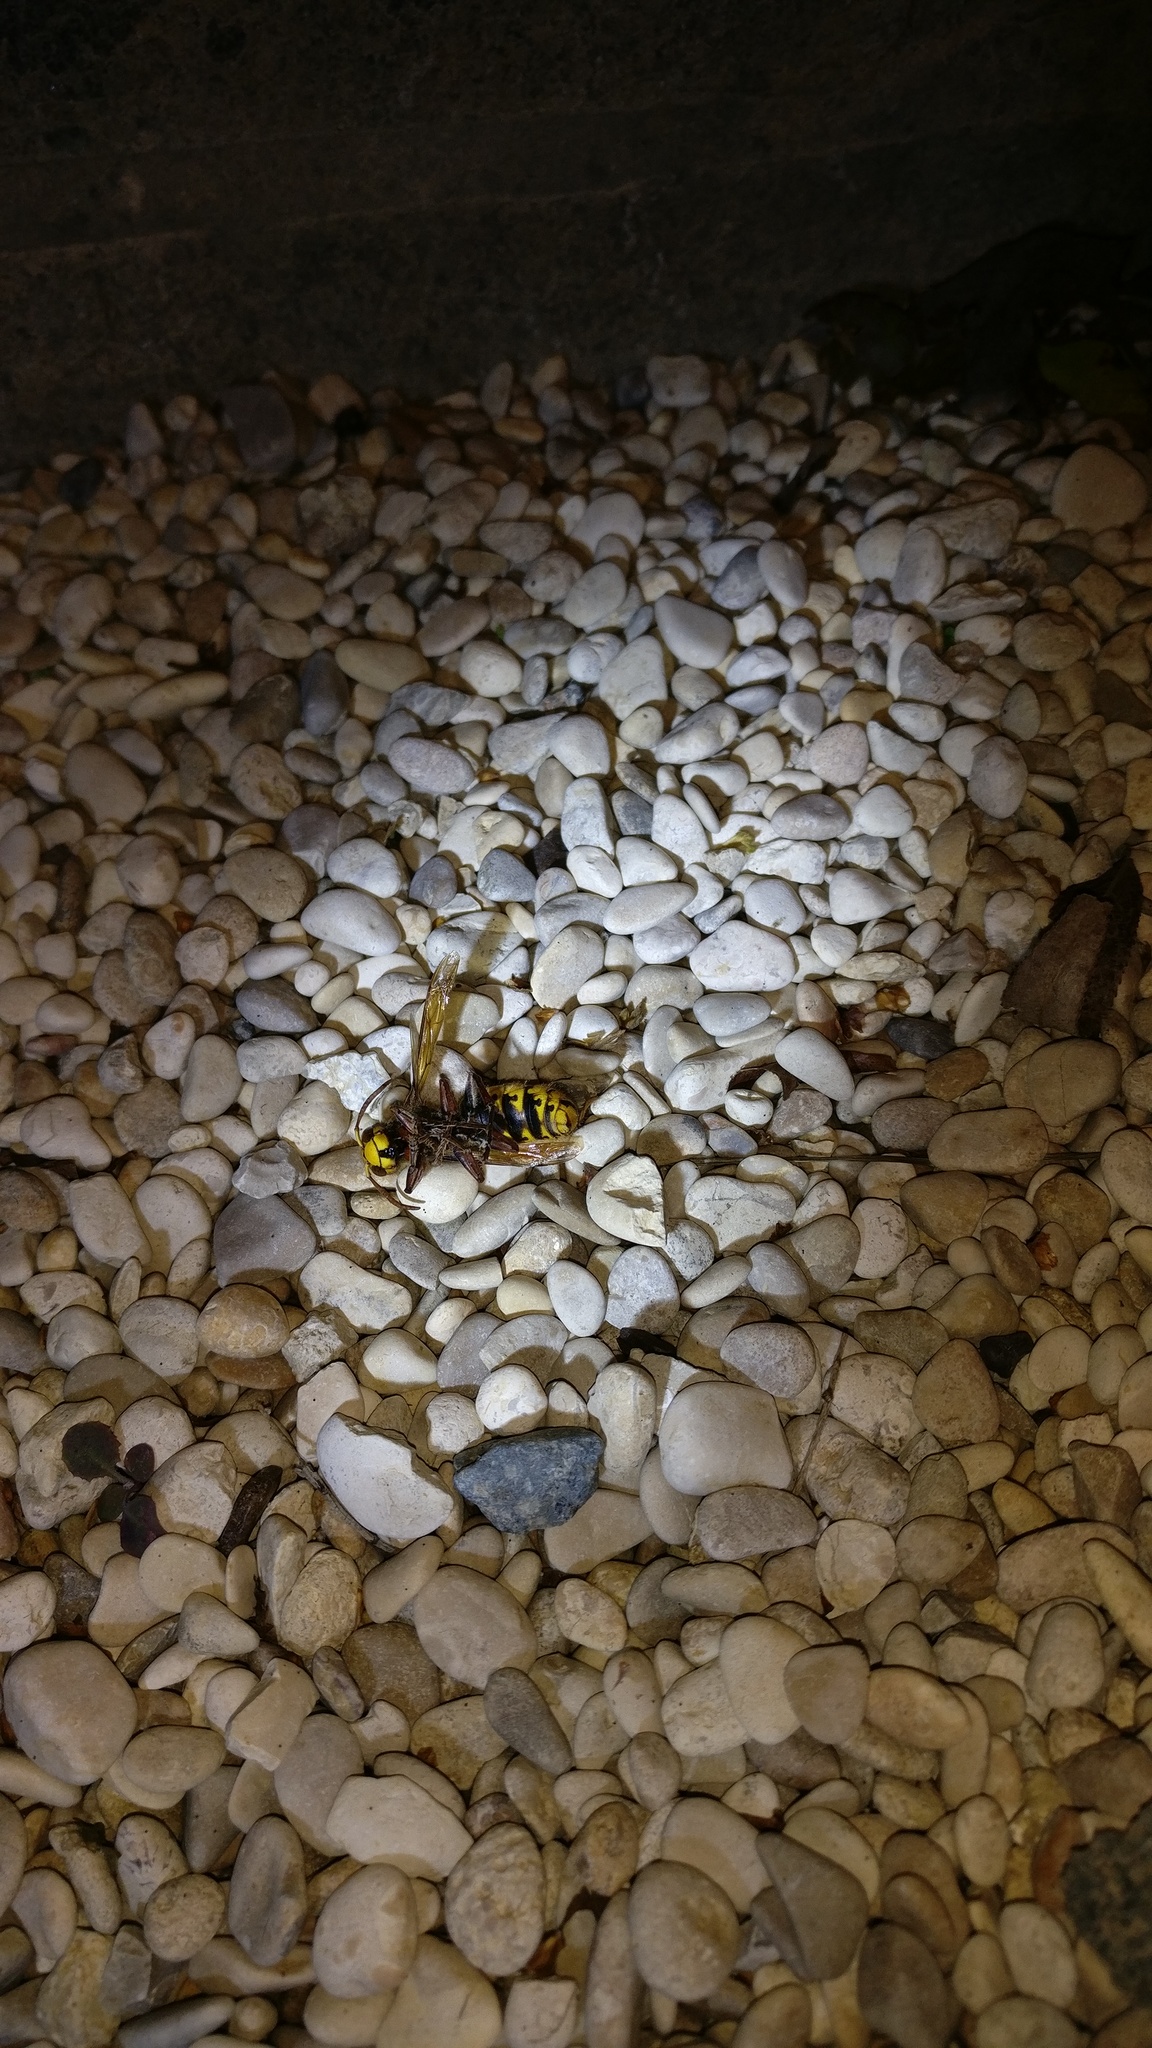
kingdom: Animalia
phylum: Arthropoda
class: Insecta
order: Hymenoptera
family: Vespidae
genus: Vespa
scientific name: Vespa crabro
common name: Hornet
